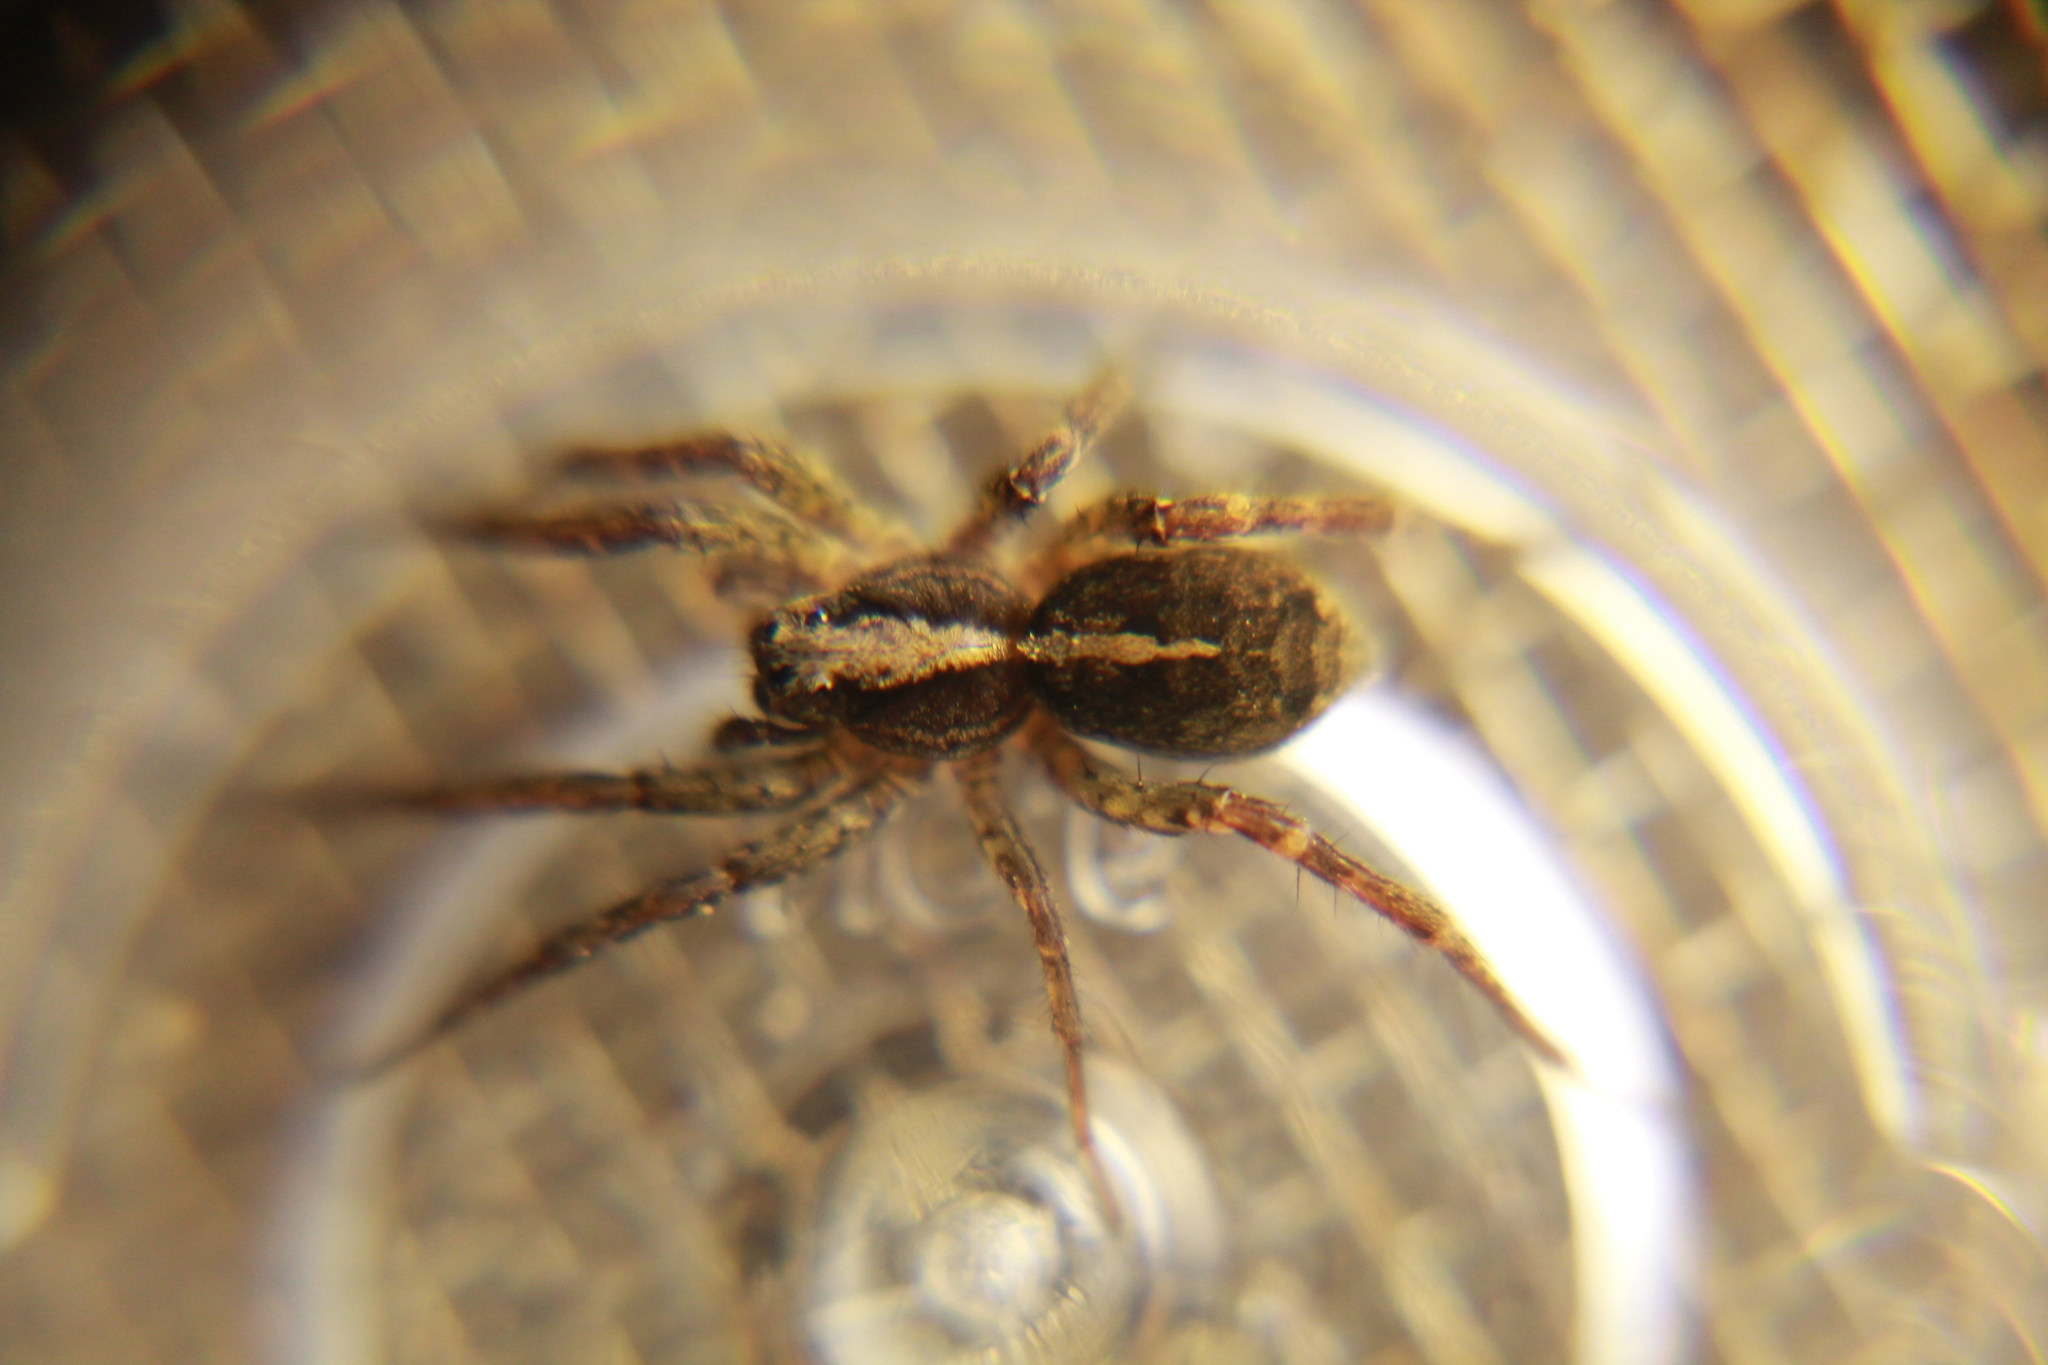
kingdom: Animalia
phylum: Arthropoda
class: Arachnida
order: Araneae
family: Lycosidae
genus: Anoteropsis
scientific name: Anoteropsis hilaris
